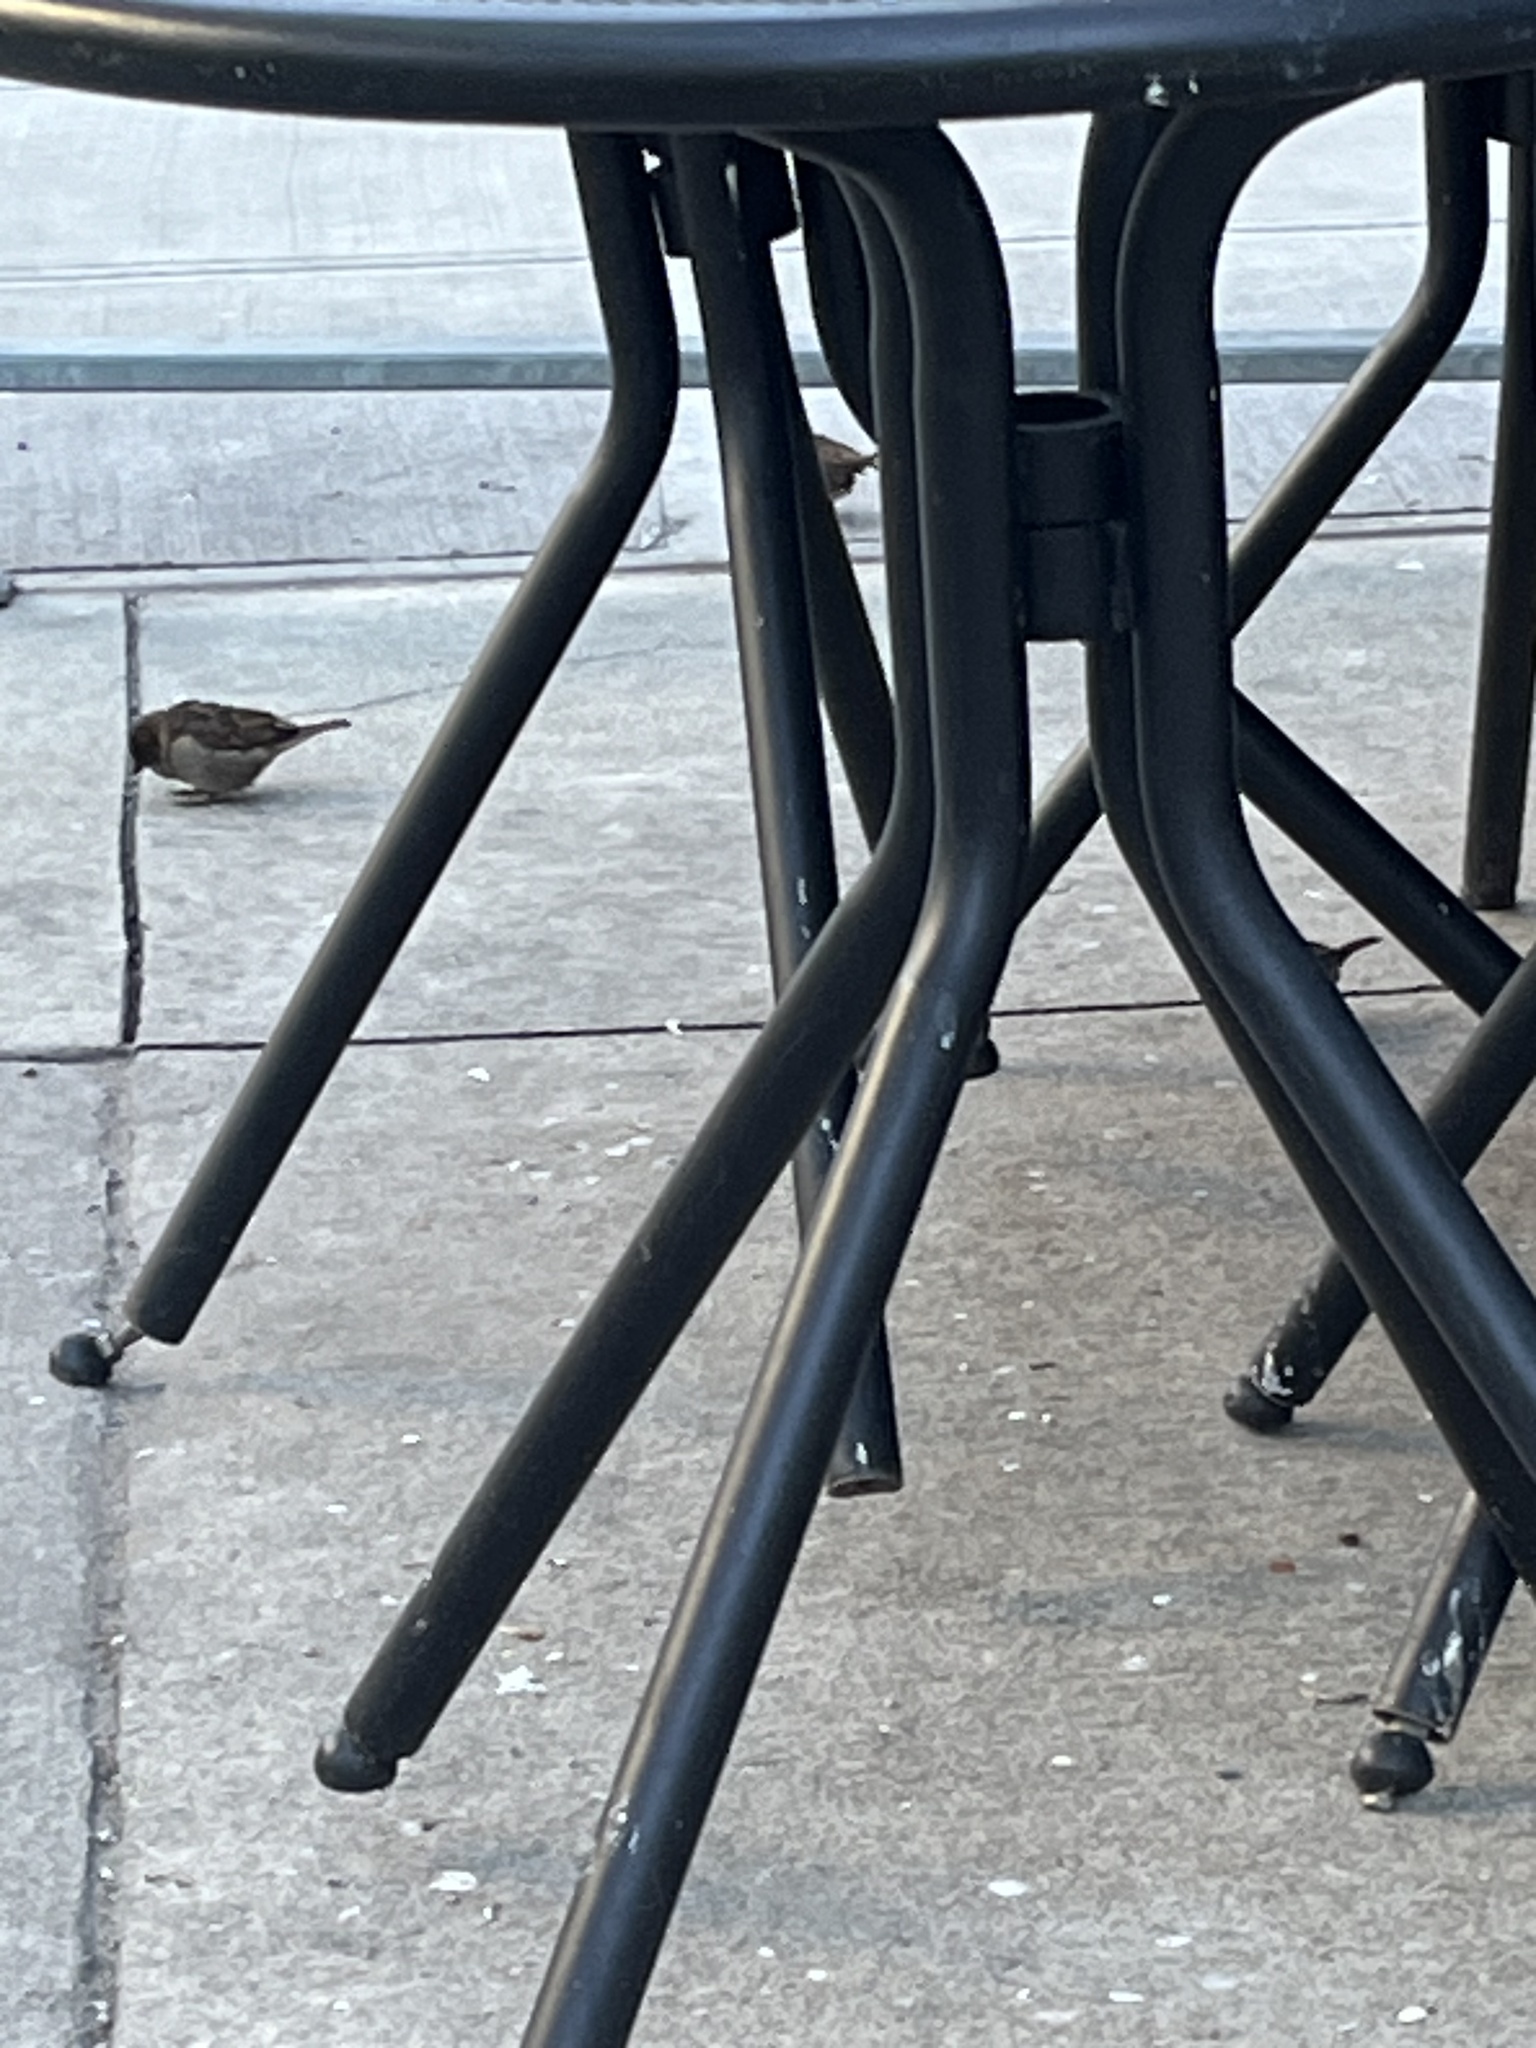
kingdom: Animalia
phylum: Chordata
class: Aves
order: Passeriformes
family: Passeridae
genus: Passer
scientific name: Passer domesticus
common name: House sparrow
